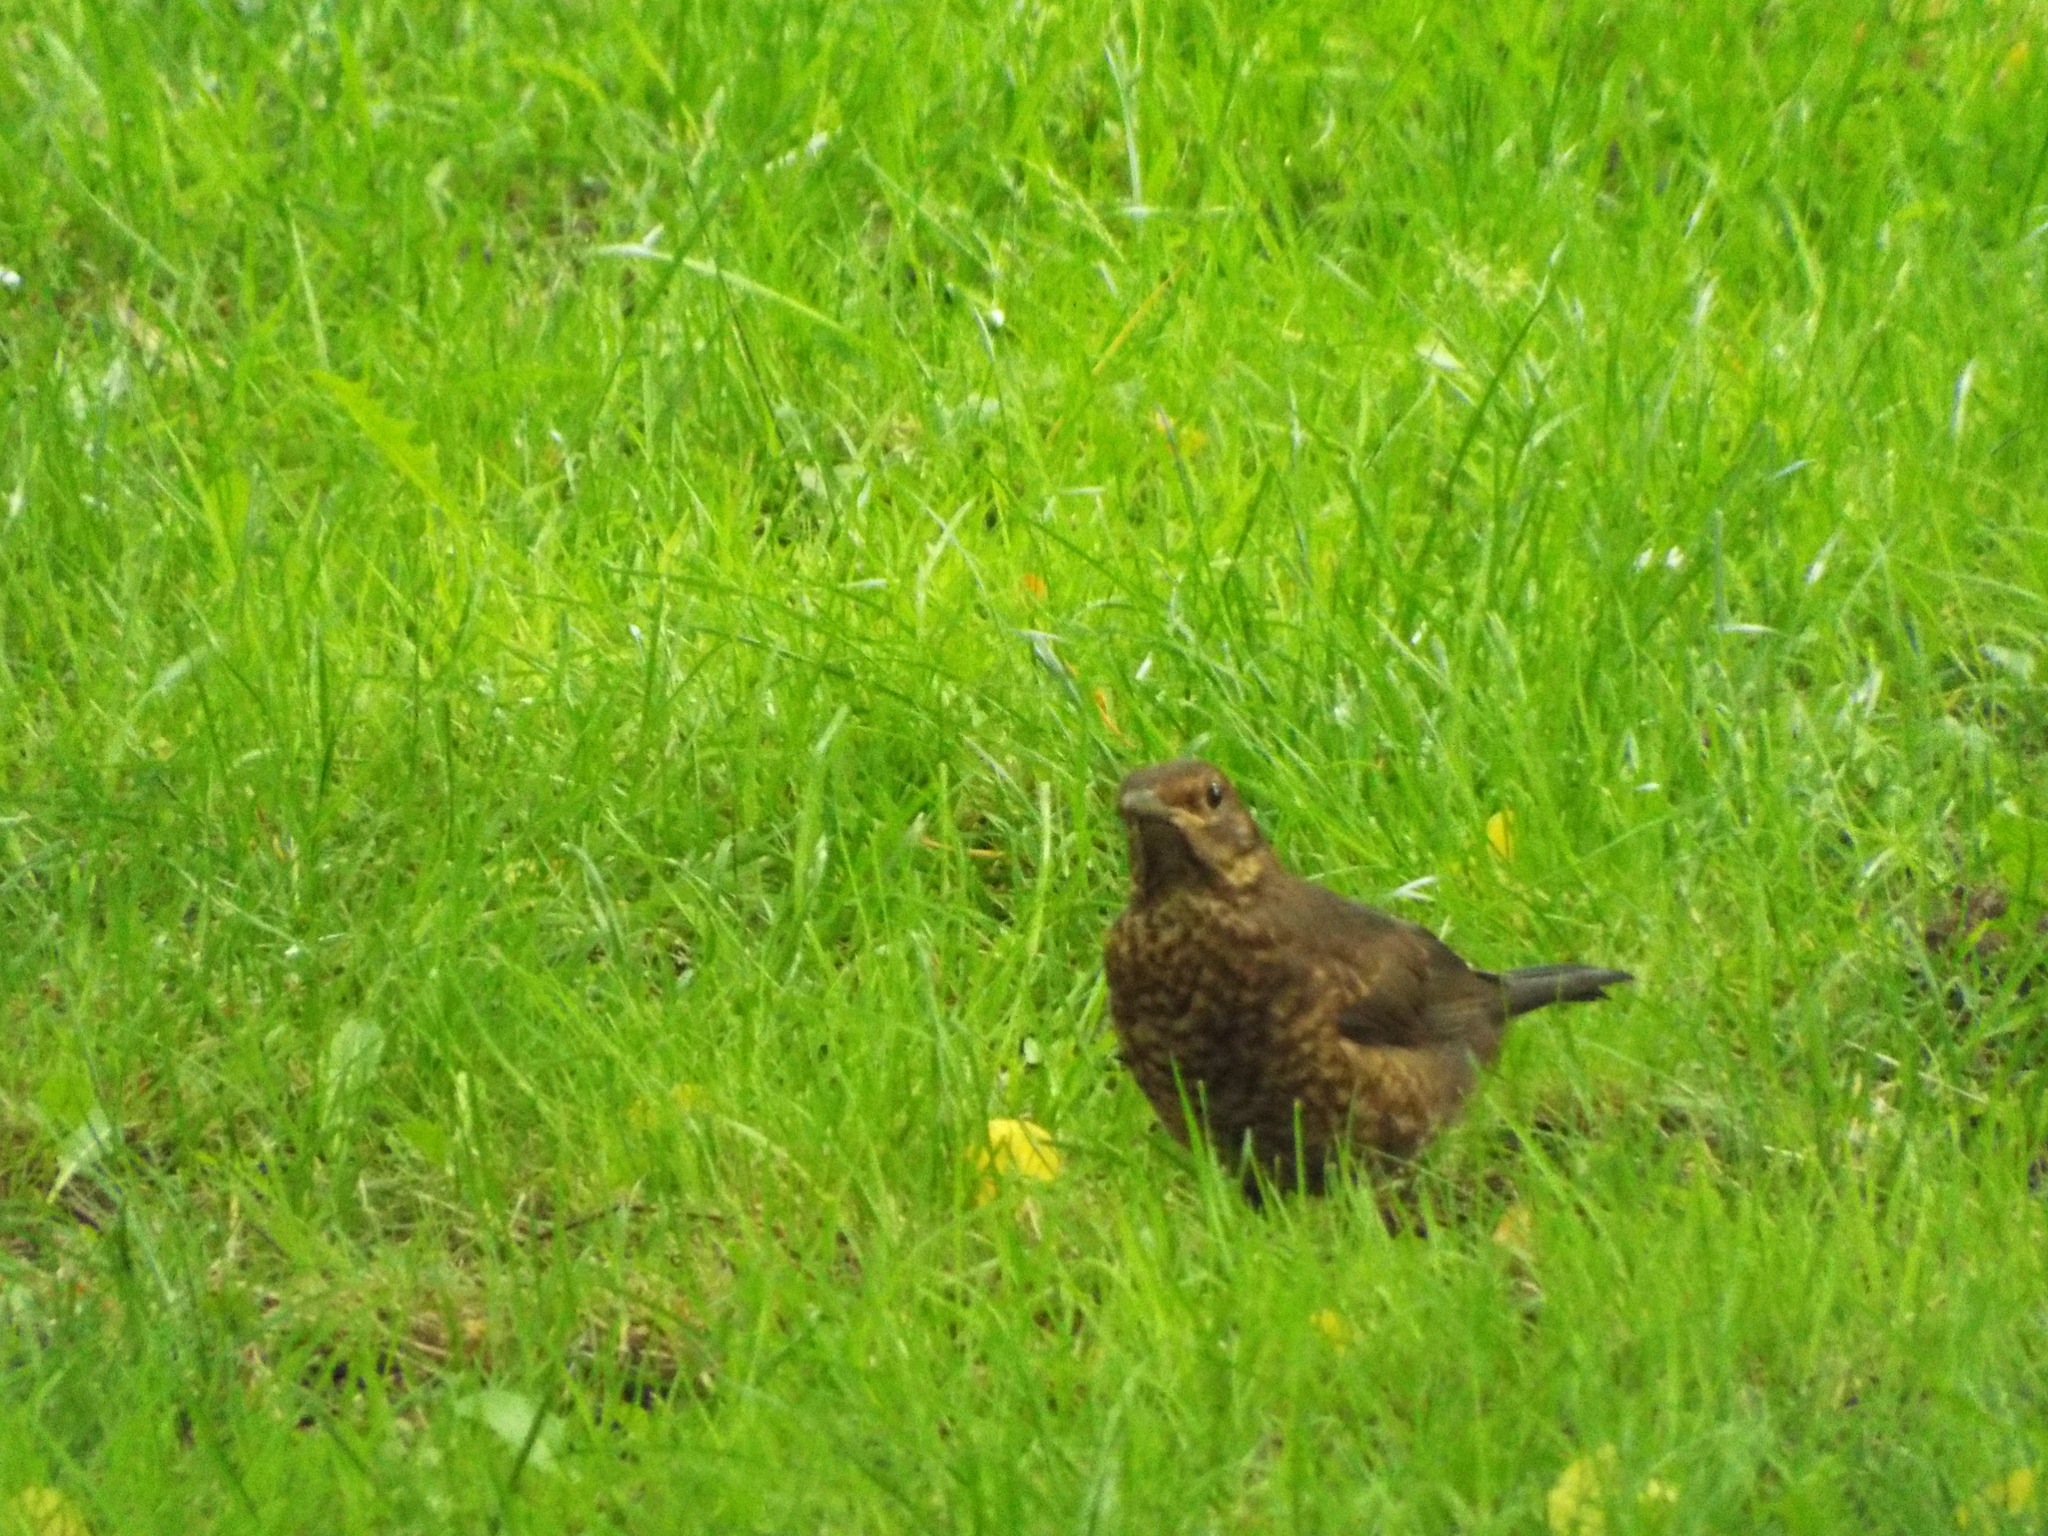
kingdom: Animalia
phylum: Chordata
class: Aves
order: Passeriformes
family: Turdidae
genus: Turdus
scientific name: Turdus merula
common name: Common blackbird
